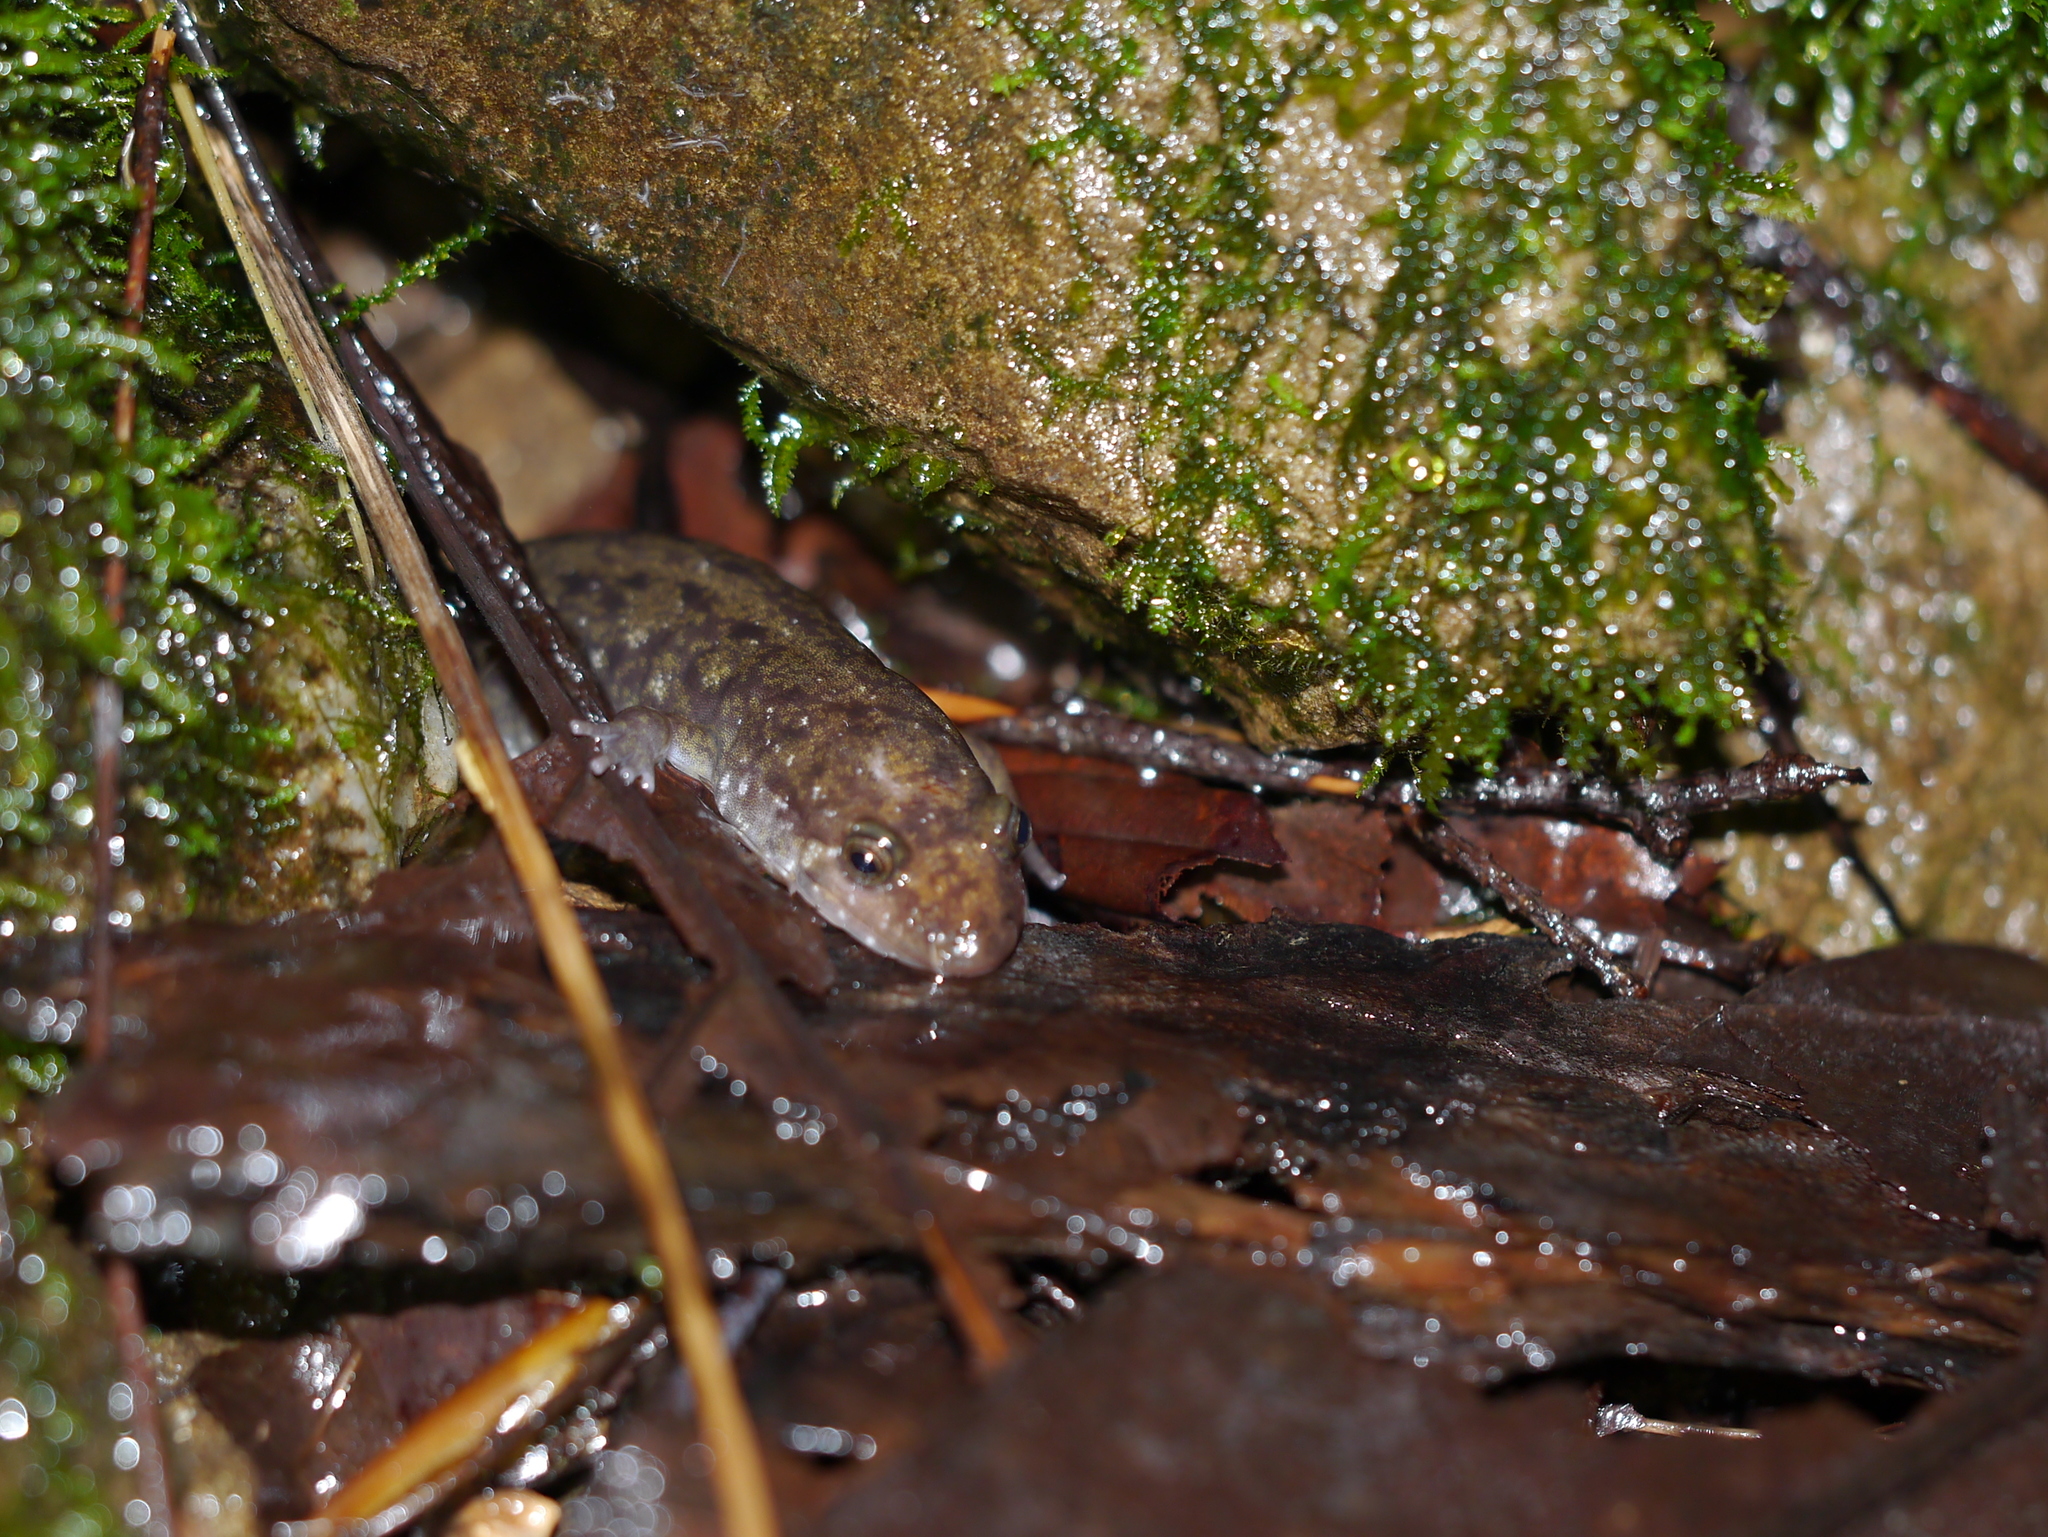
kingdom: Animalia
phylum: Chordata
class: Amphibia
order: Caudata
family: Plethodontidae
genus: Desmognathus
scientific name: Desmognathus monticola
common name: Seal salamander
